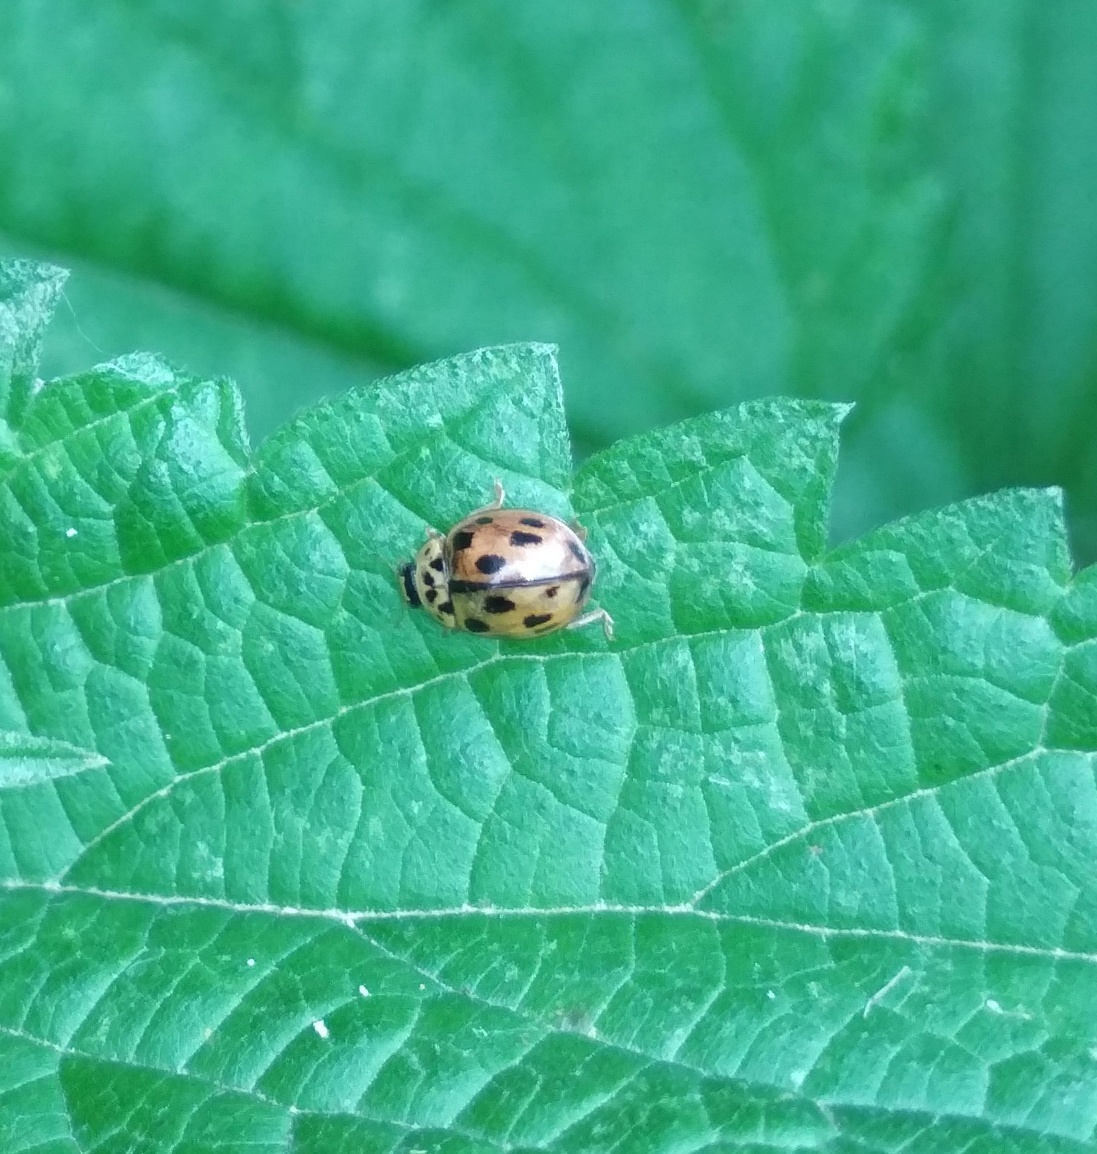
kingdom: Animalia
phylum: Arthropoda
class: Insecta
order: Coleoptera
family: Coccinellidae
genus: Propylaea
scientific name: Propylaea quatuordecimpunctata
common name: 14-spotted ladybird beetle
